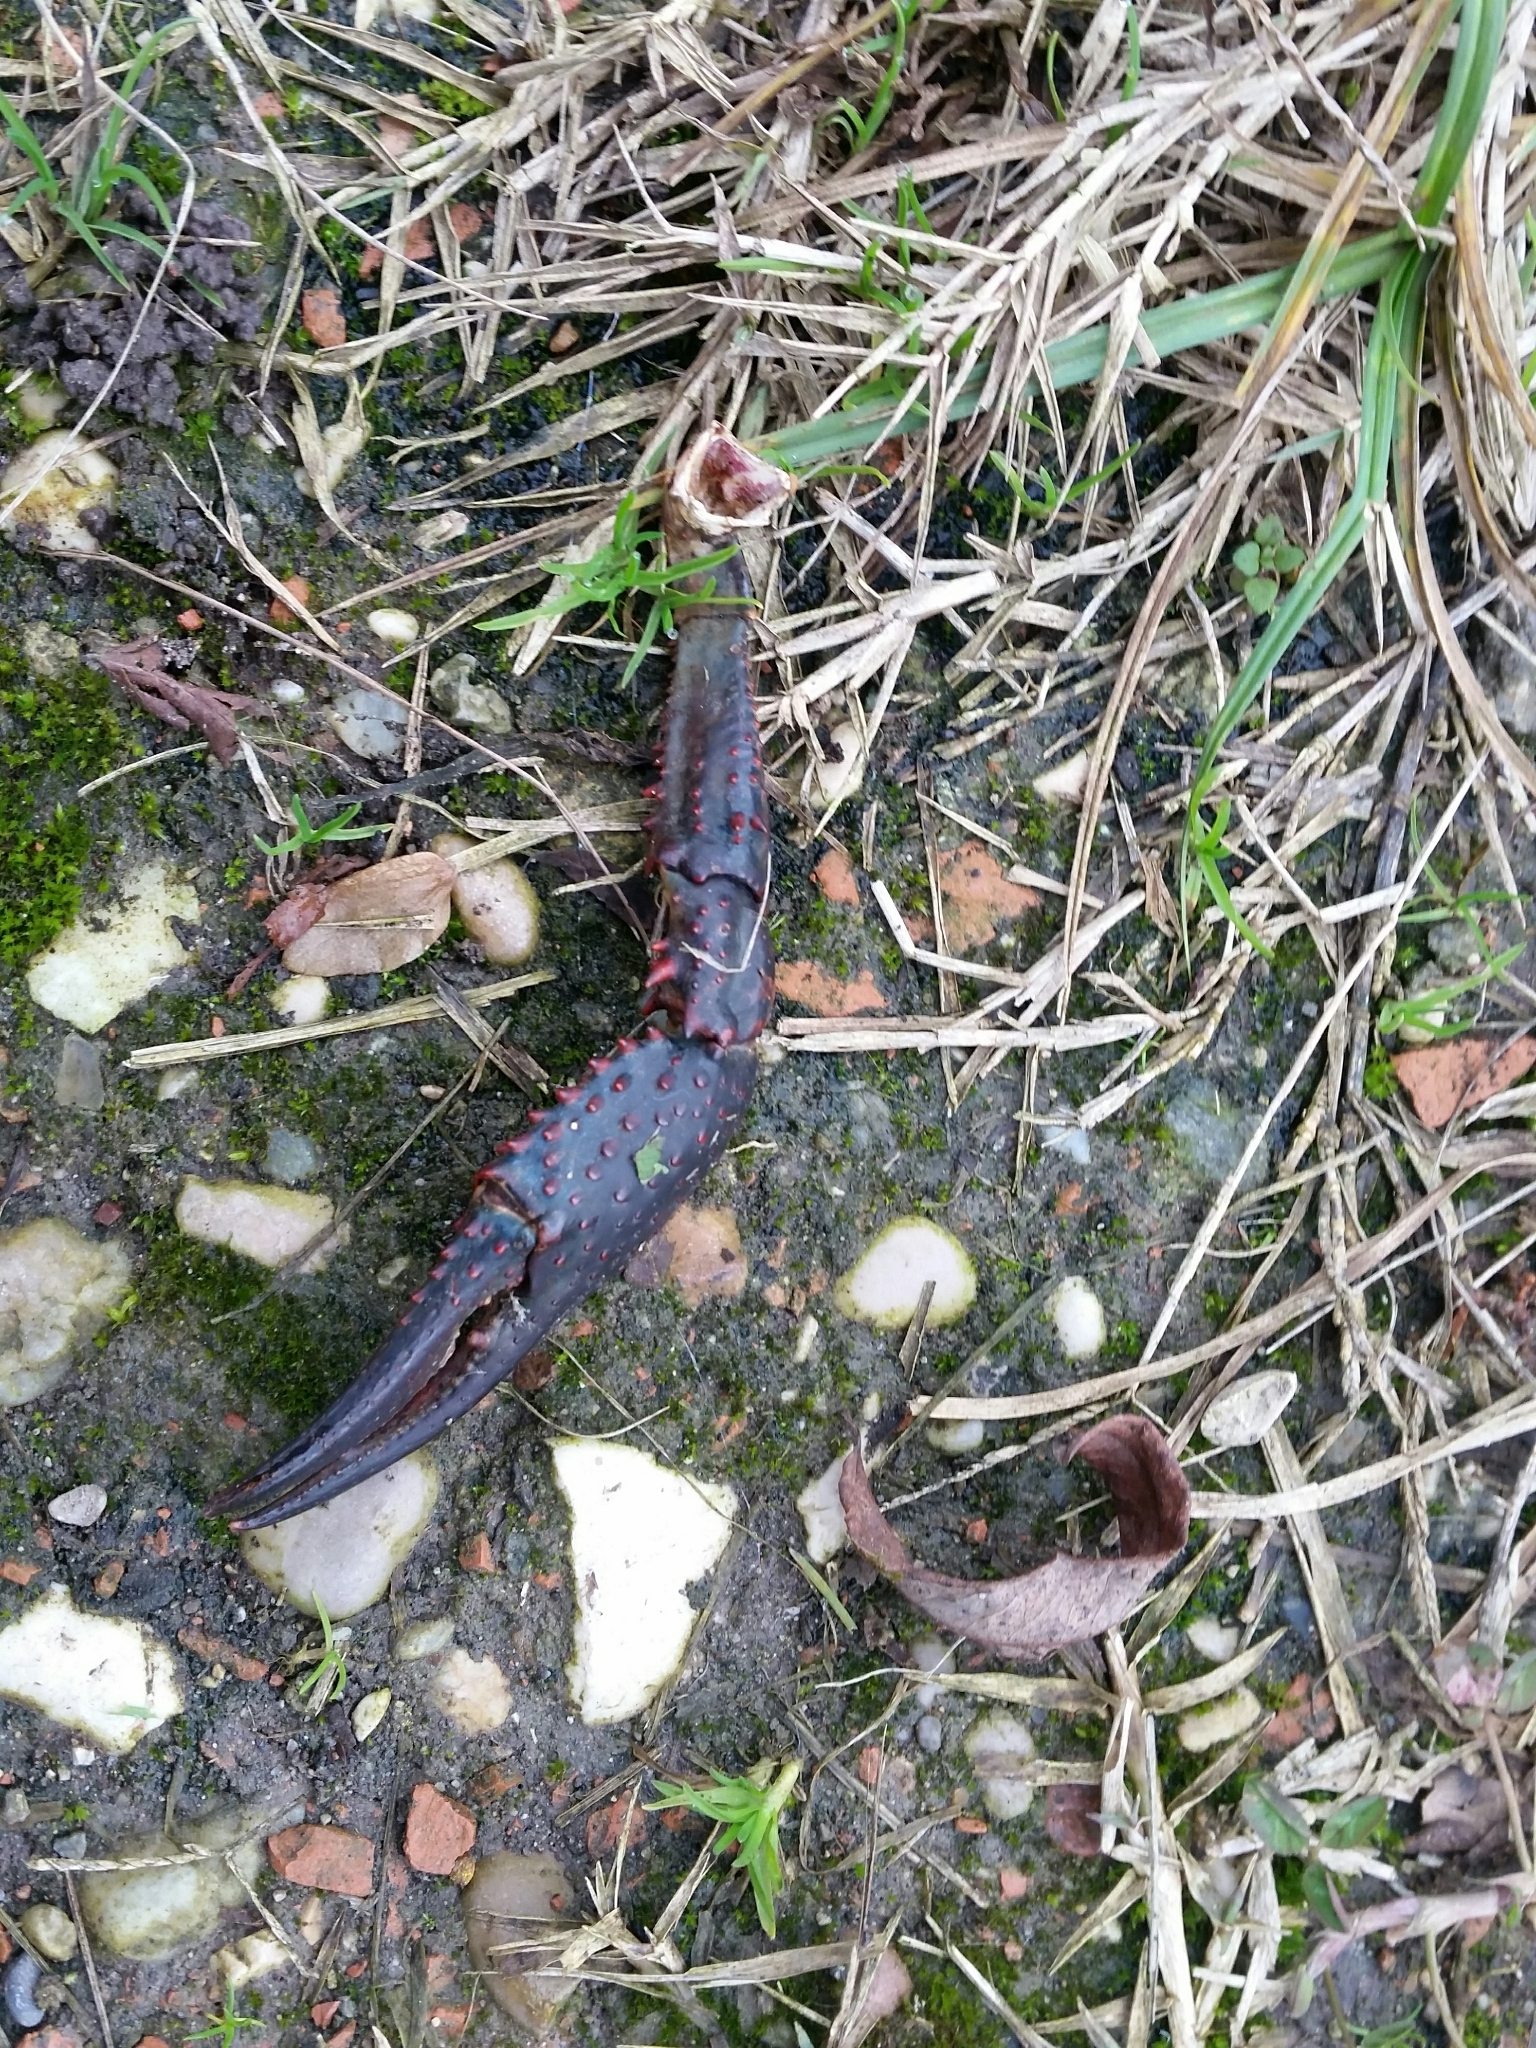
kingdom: Animalia
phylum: Arthropoda
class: Malacostraca
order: Decapoda
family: Cambaridae
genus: Procambarus
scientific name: Procambarus clarkii
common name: Red swamp crayfish
